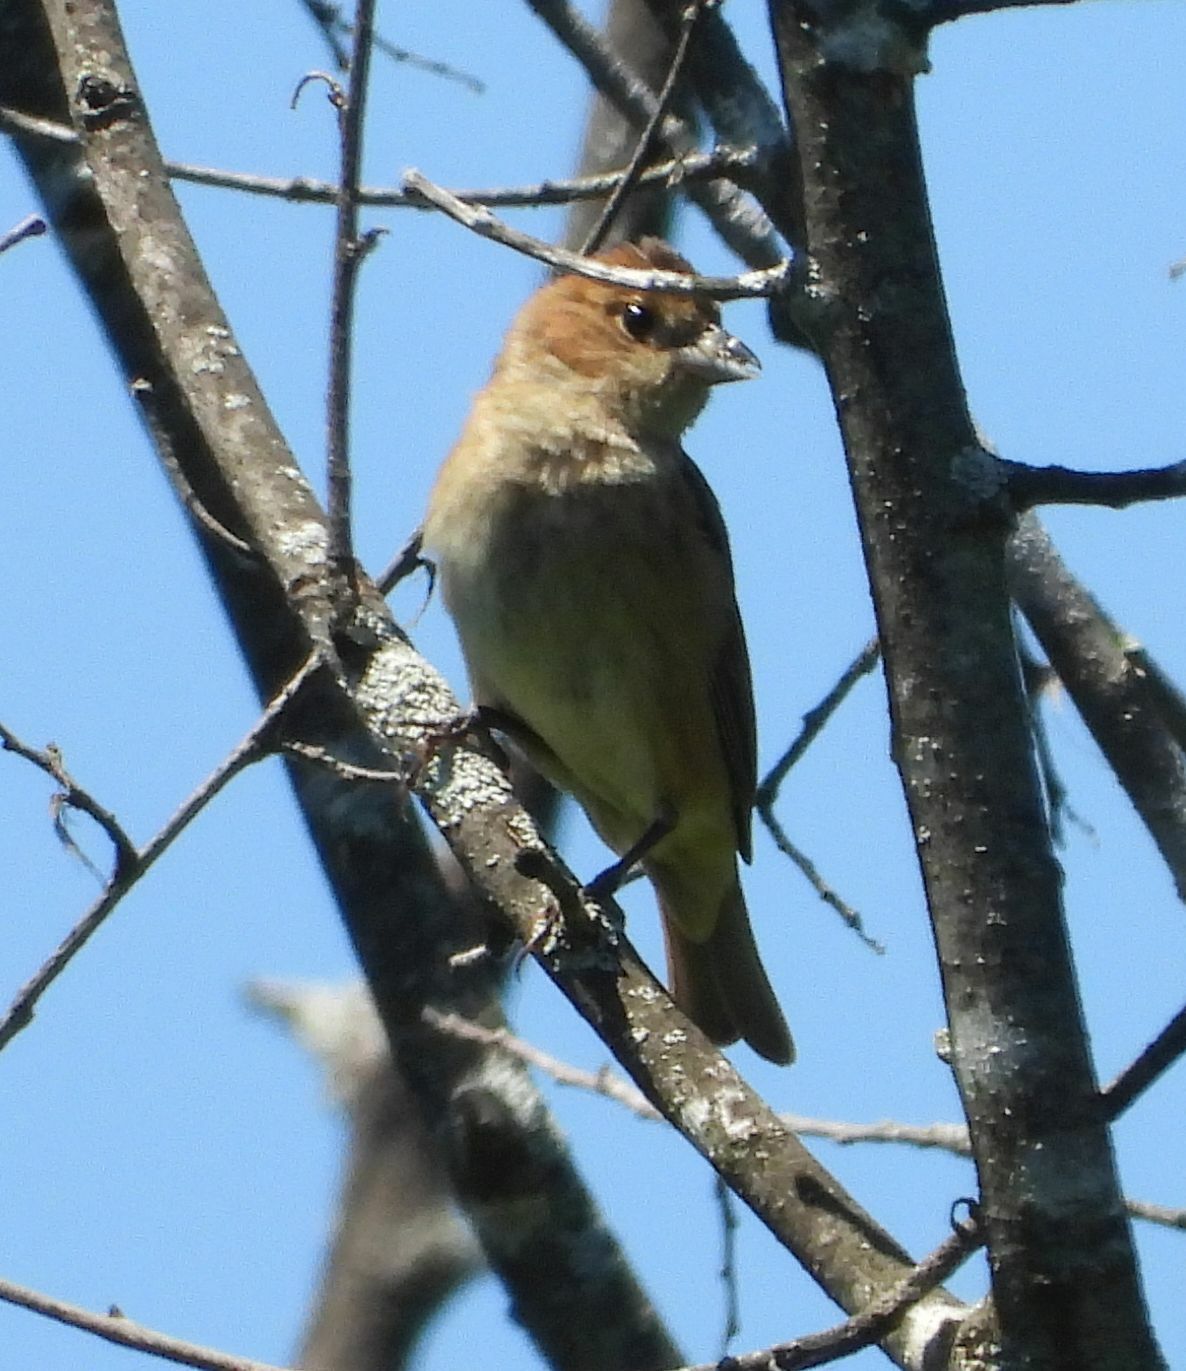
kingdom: Animalia
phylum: Chordata
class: Aves
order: Passeriformes
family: Cardinalidae
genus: Passerina
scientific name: Passerina cyanea
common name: Indigo bunting
